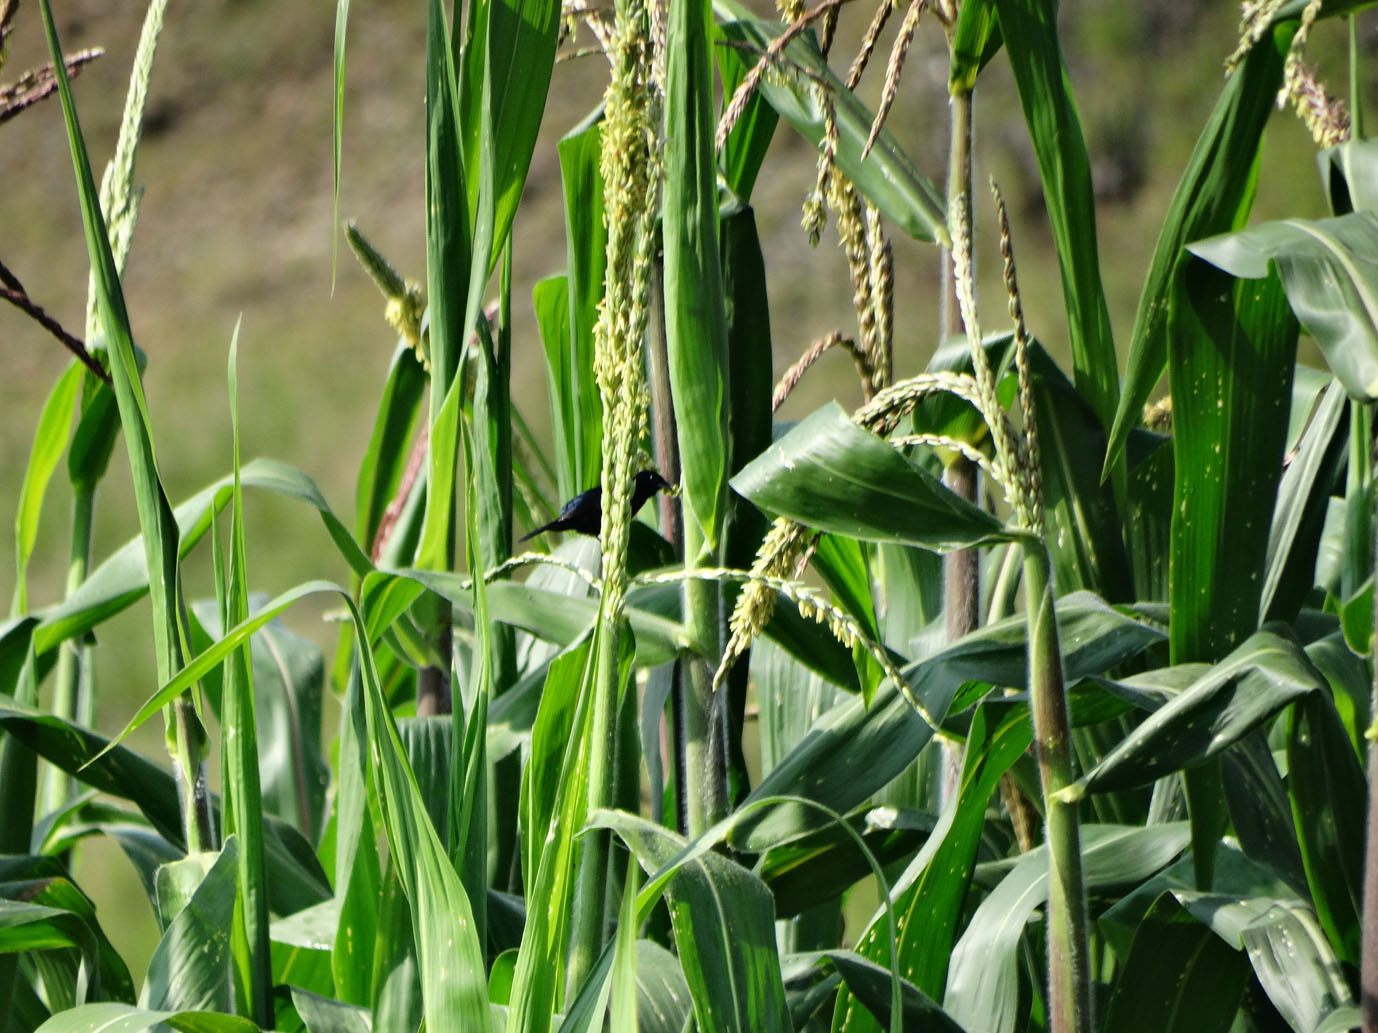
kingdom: Animalia
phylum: Chordata
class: Aves
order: Passeriformes
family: Thraupidae
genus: Volatinia
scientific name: Volatinia jacarina
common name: Blue-black grassquit
